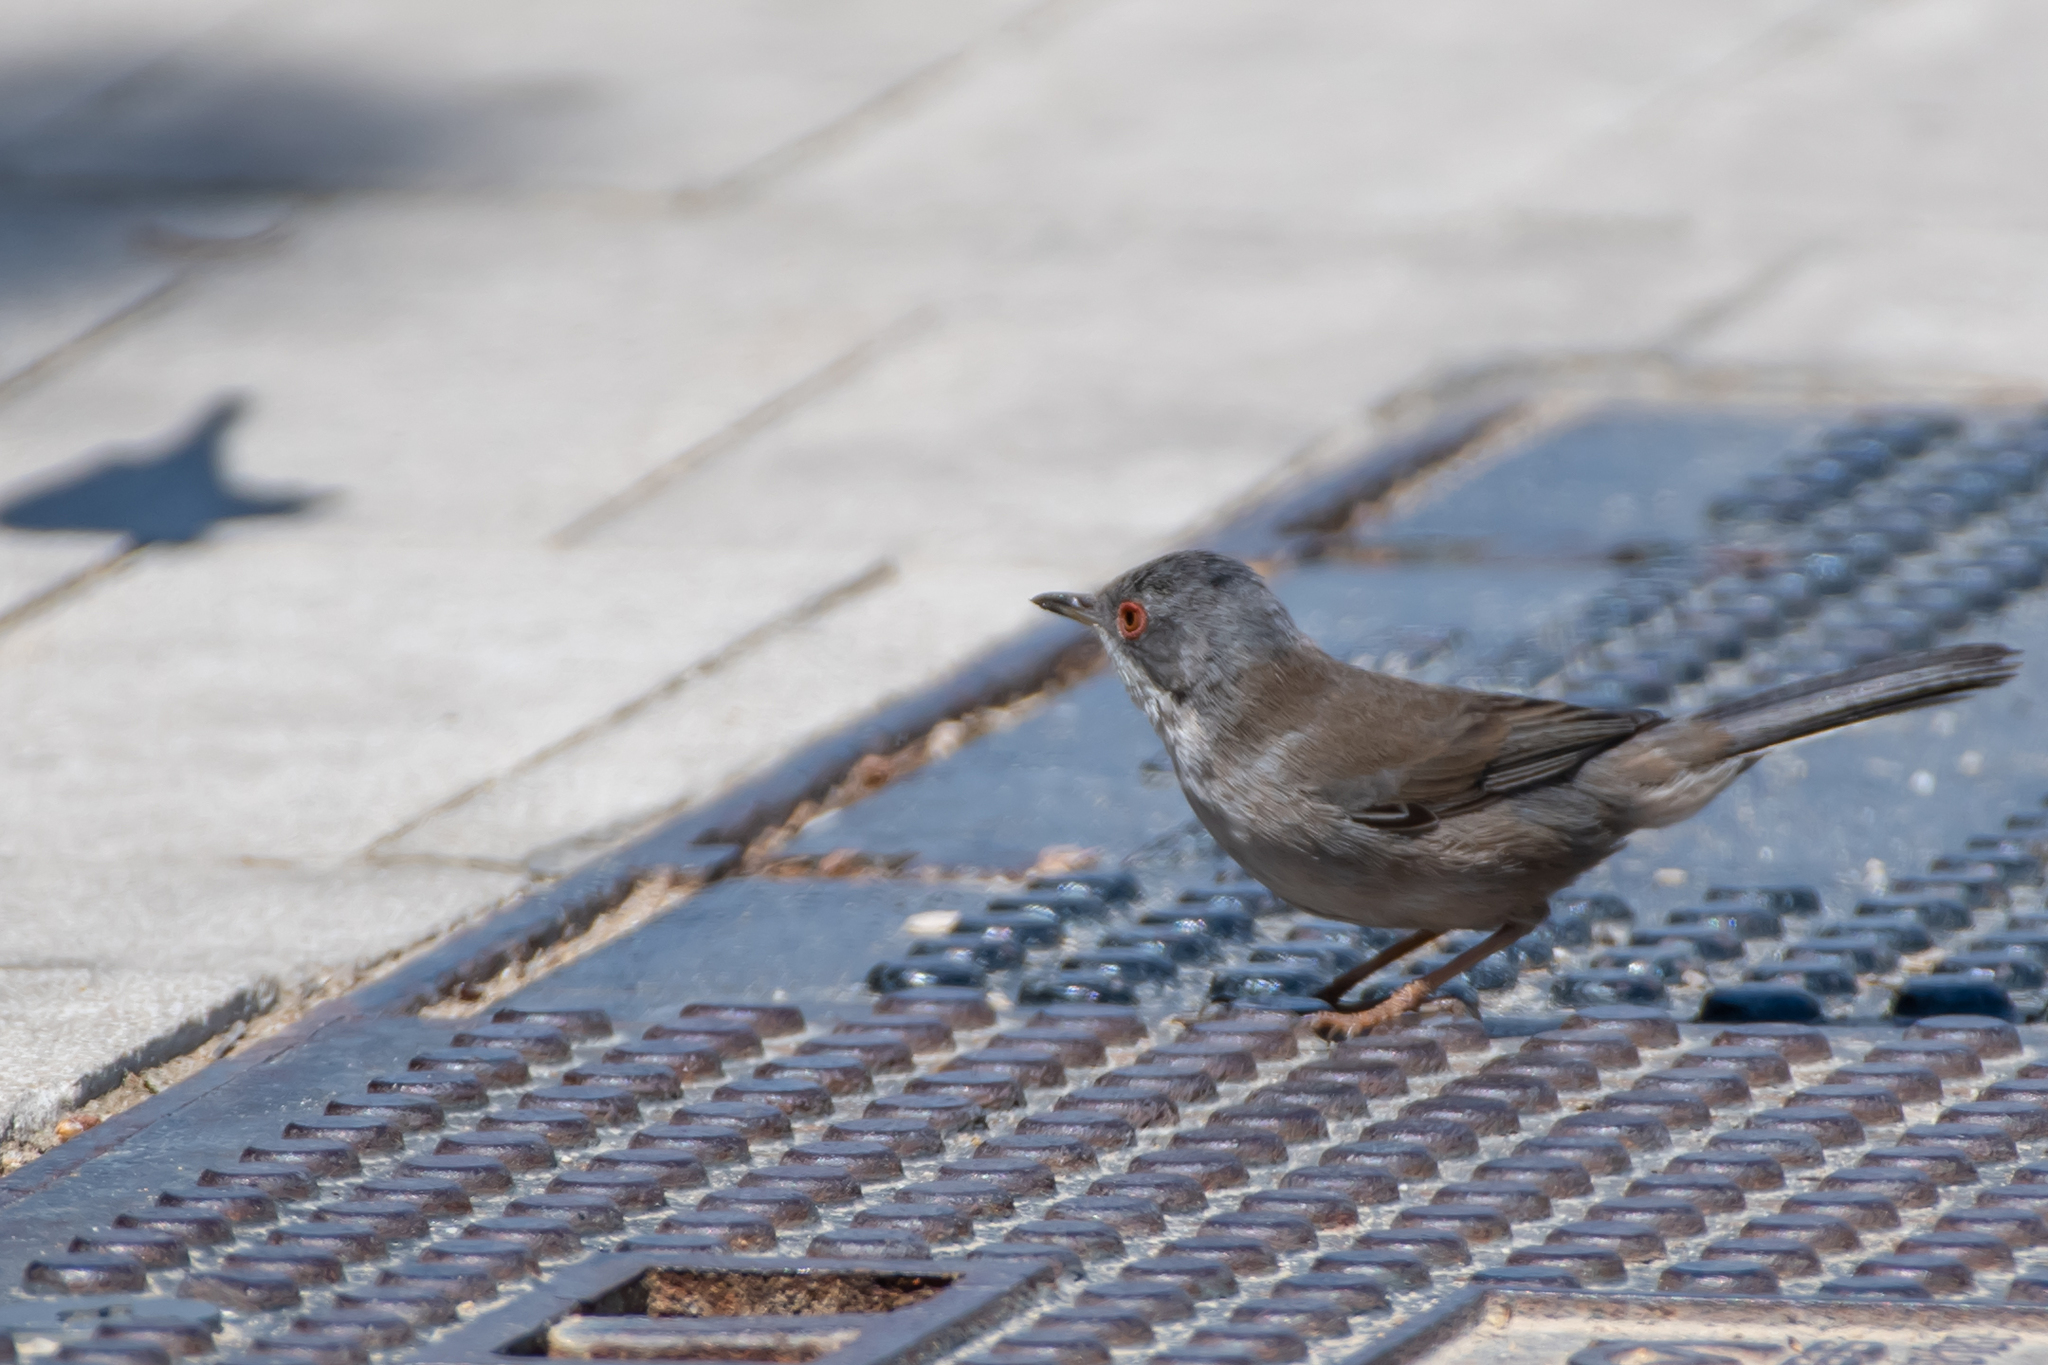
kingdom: Animalia
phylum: Chordata
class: Aves
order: Passeriformes
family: Sylviidae
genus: Curruca
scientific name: Curruca melanocephala
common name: Sardinian warbler
